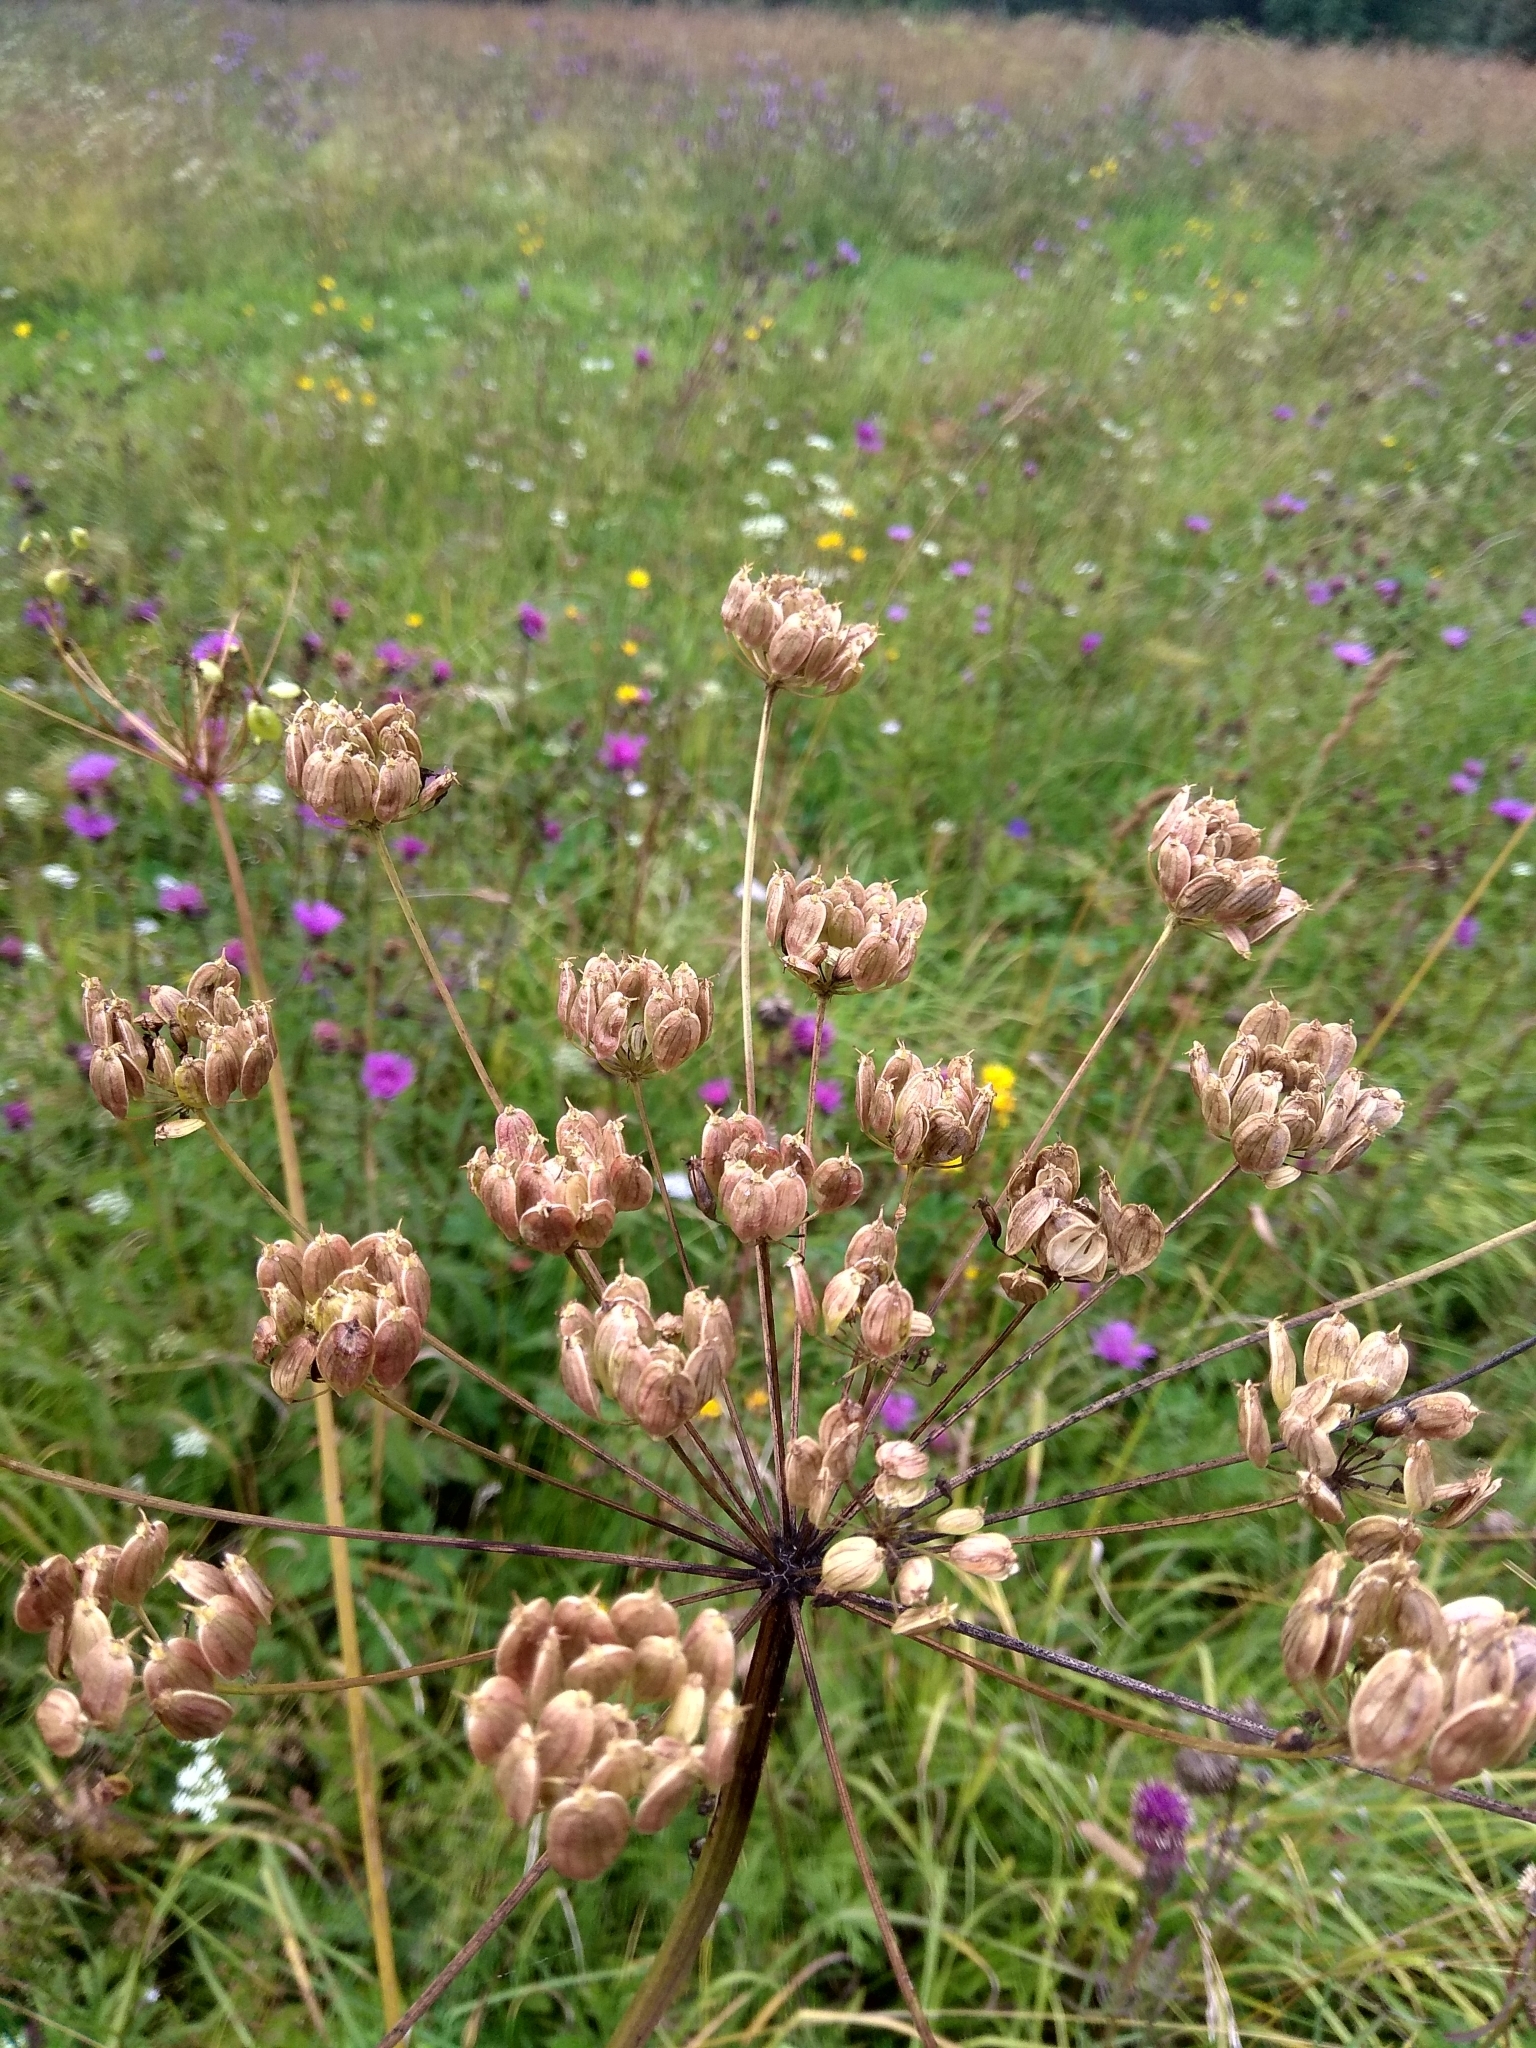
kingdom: Plantae
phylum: Tracheophyta
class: Magnoliopsida
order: Apiales
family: Apiaceae
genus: Heracleum
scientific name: Heracleum sphondylium
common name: Hogweed
